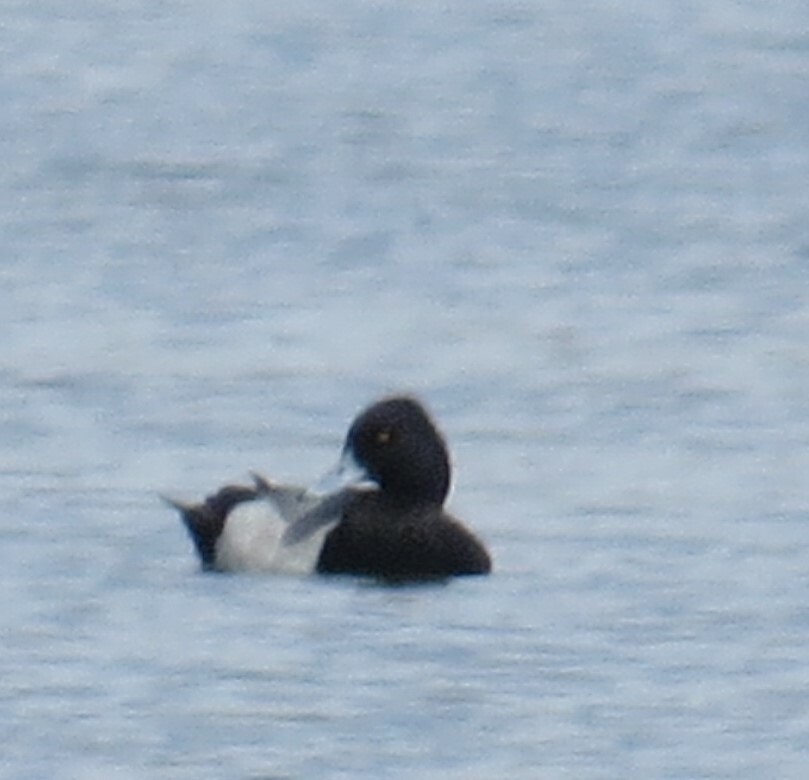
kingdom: Animalia
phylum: Chordata
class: Aves
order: Anseriformes
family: Anatidae
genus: Aythya
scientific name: Aythya affinis
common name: Lesser scaup
